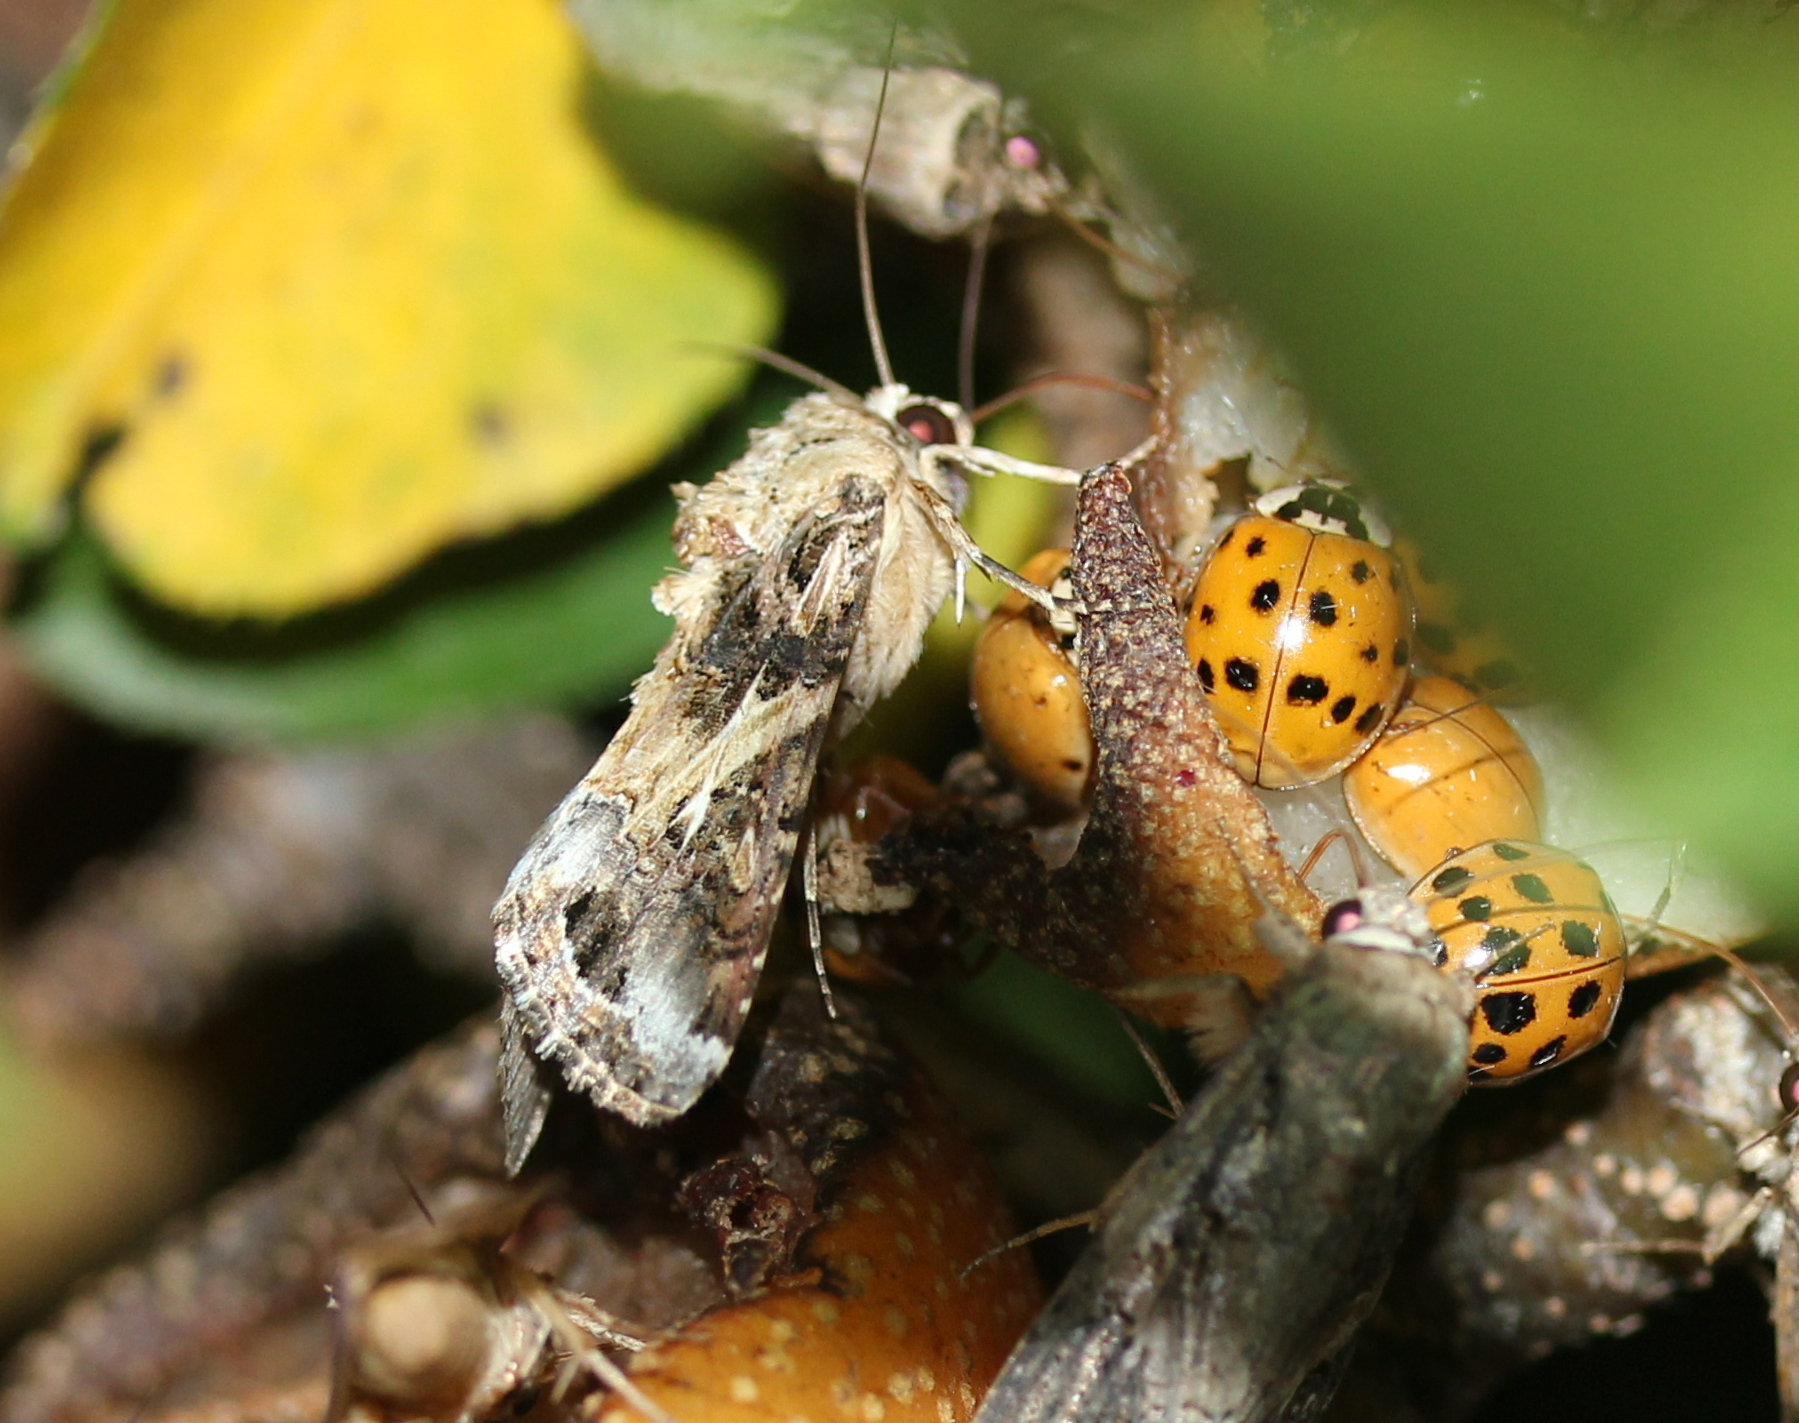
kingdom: Animalia
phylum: Arthropoda
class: Insecta
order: Coleoptera
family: Coccinellidae
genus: Harmonia
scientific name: Harmonia axyridis
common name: Harlequin ladybird
